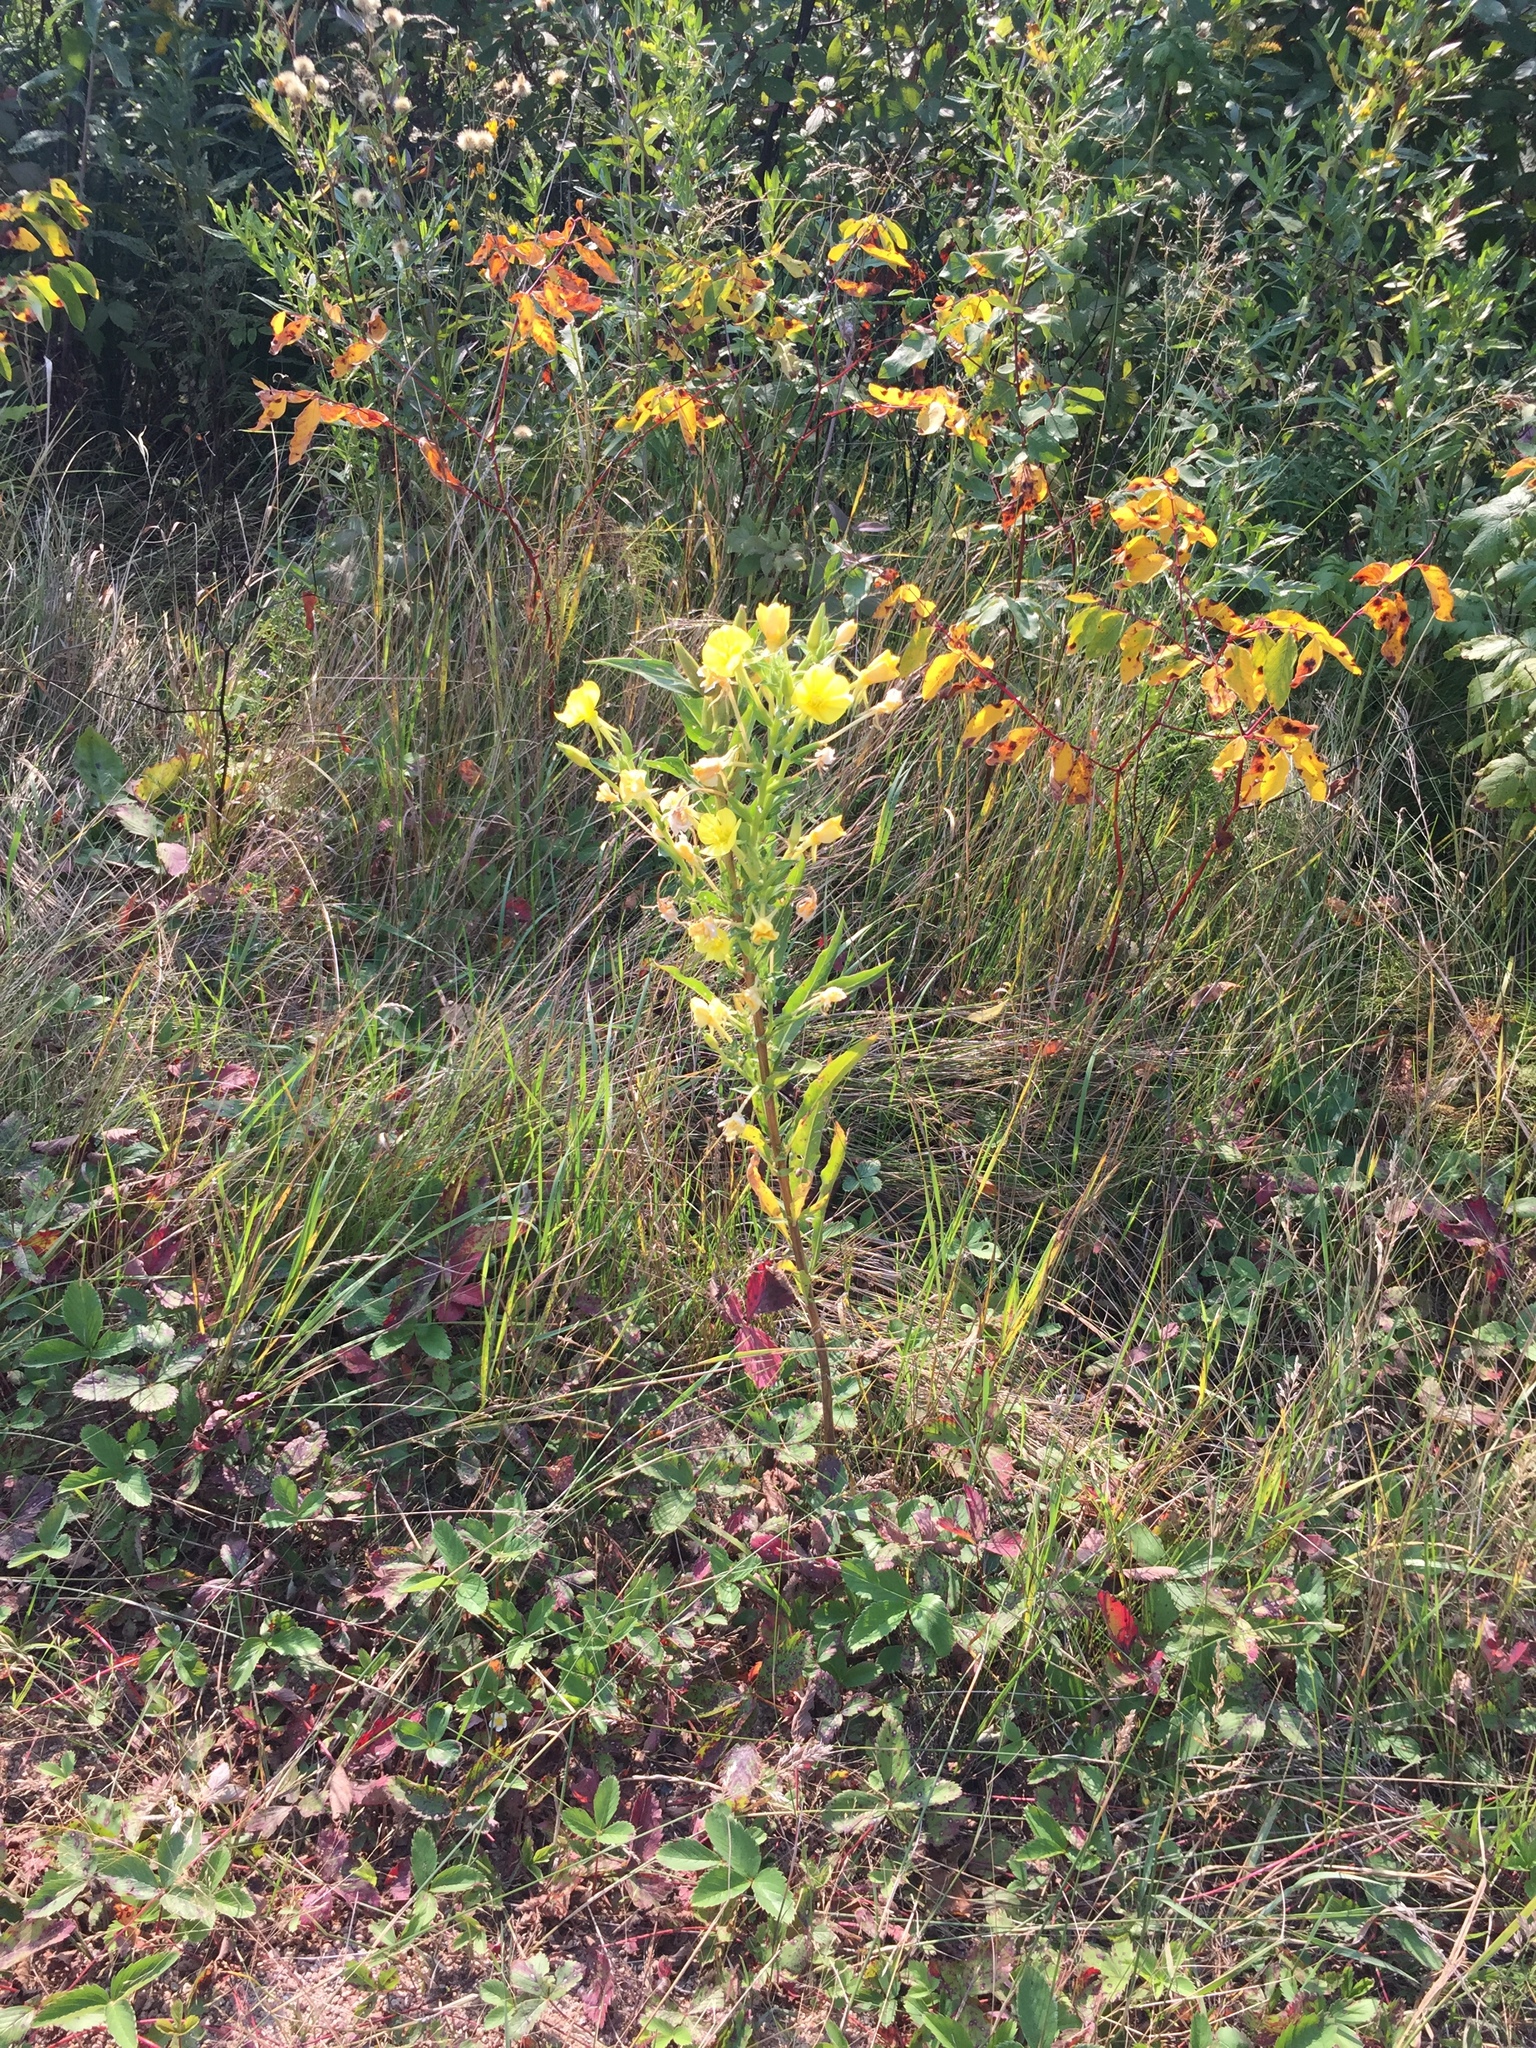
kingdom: Plantae
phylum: Tracheophyta
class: Magnoliopsida
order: Myrtales
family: Onagraceae
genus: Oenothera
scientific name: Oenothera biennis
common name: Common evening-primrose
